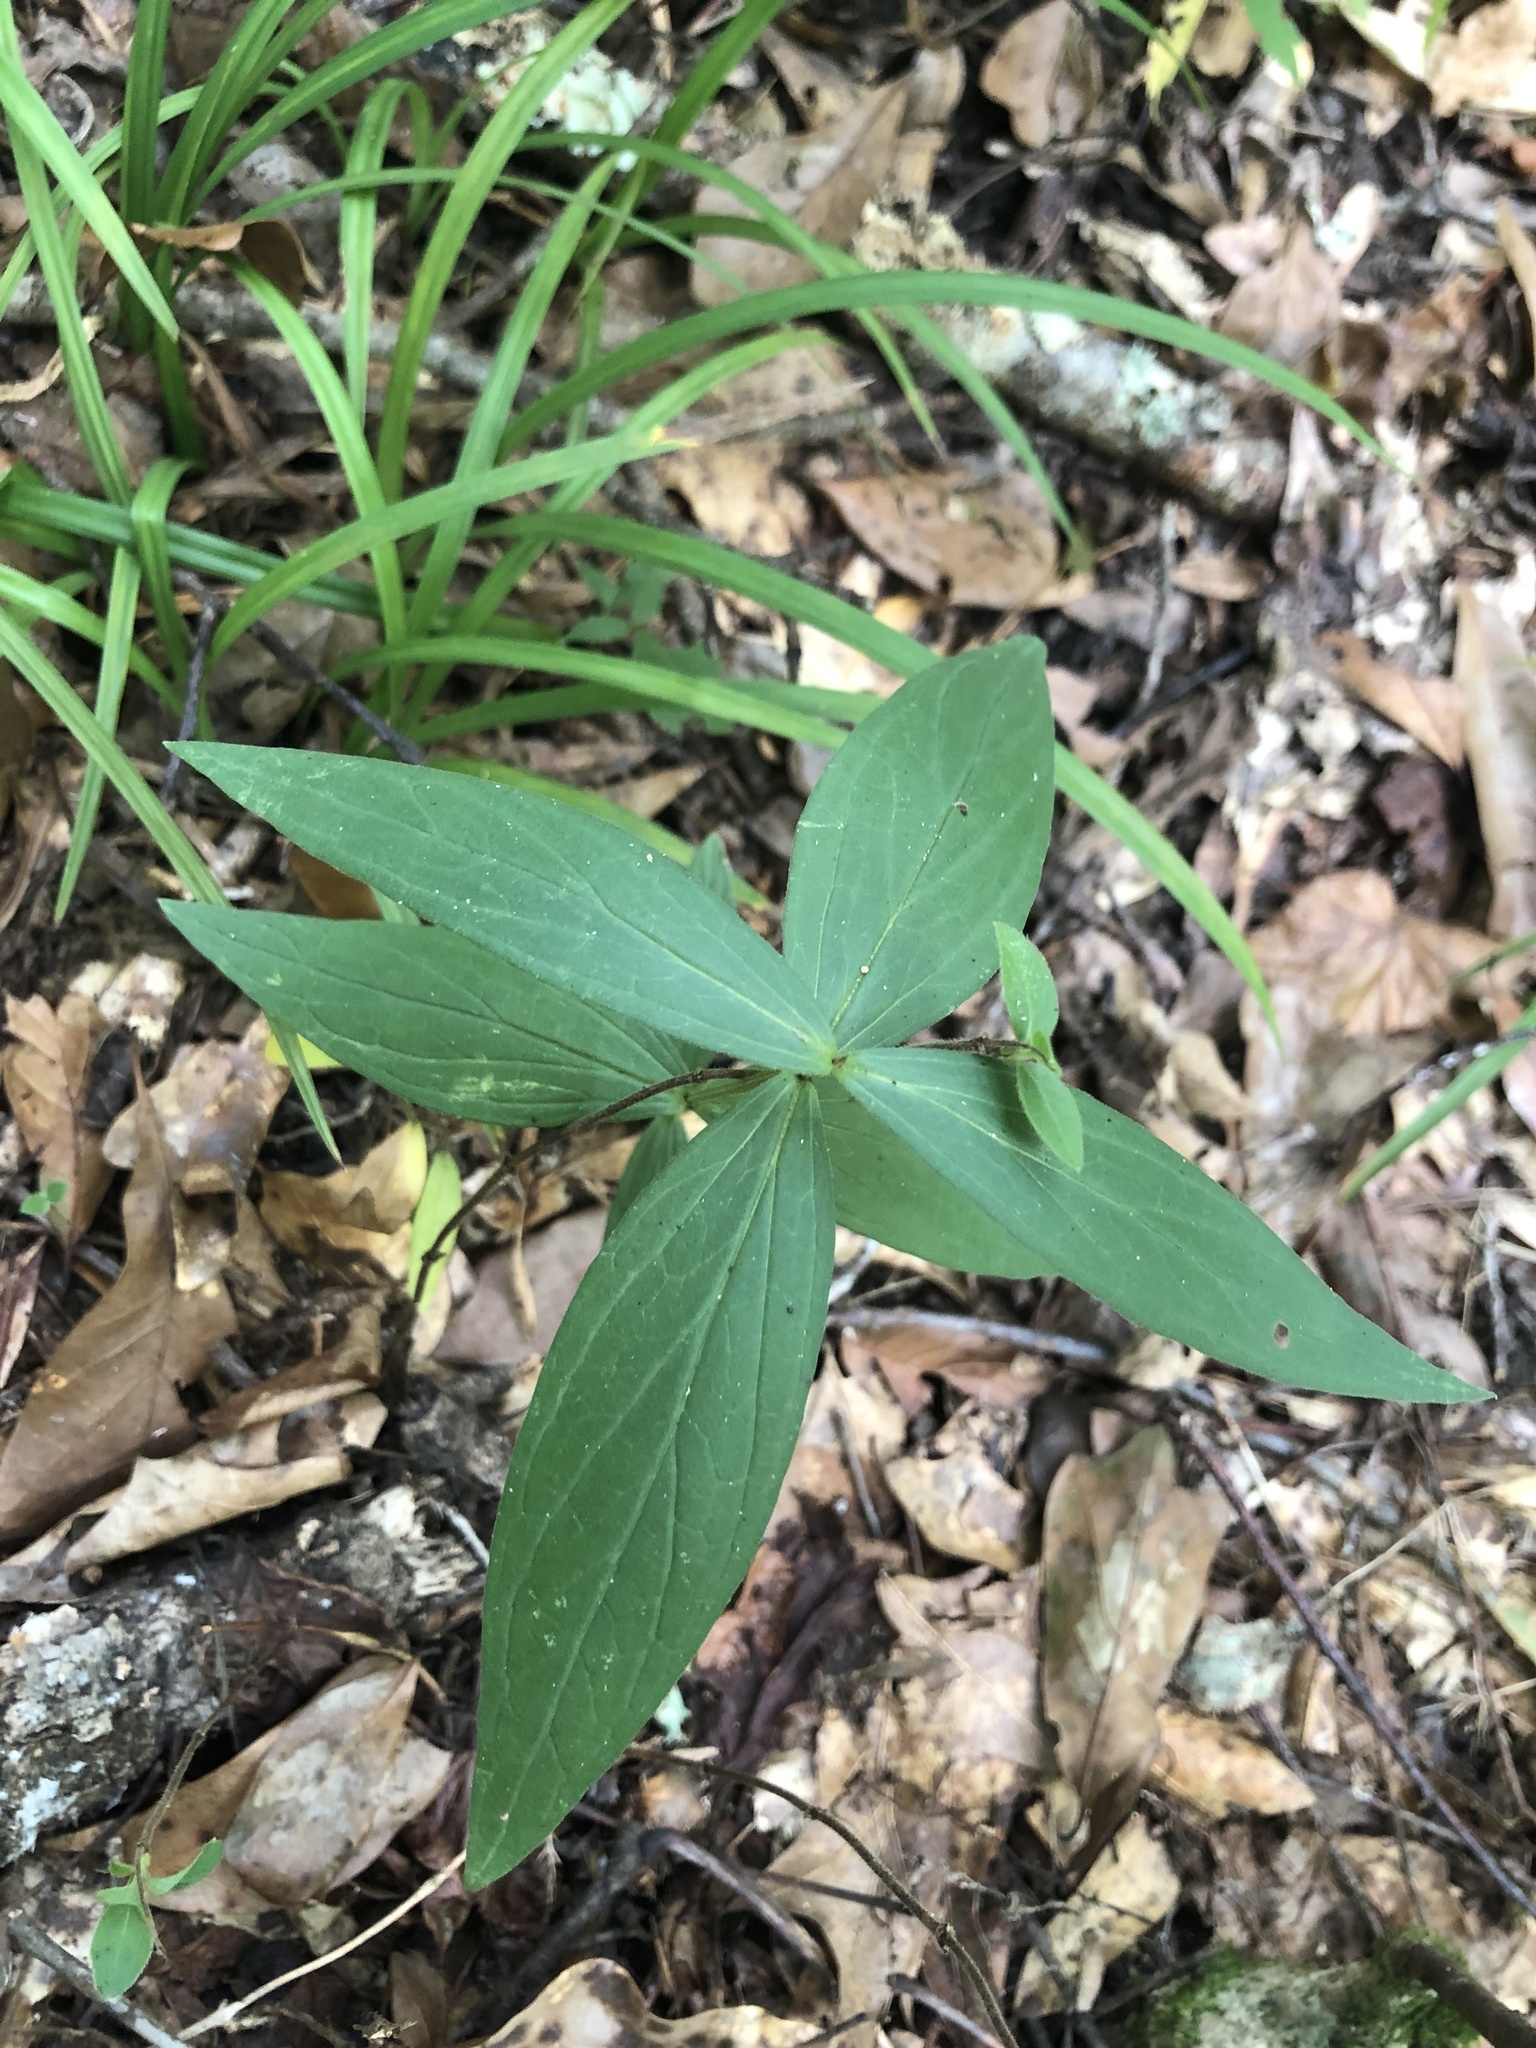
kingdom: Plantae
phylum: Tracheophyta
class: Magnoliopsida
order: Gentianales
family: Loganiaceae
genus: Spigelia
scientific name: Spigelia marilandica
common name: Indian-pink
